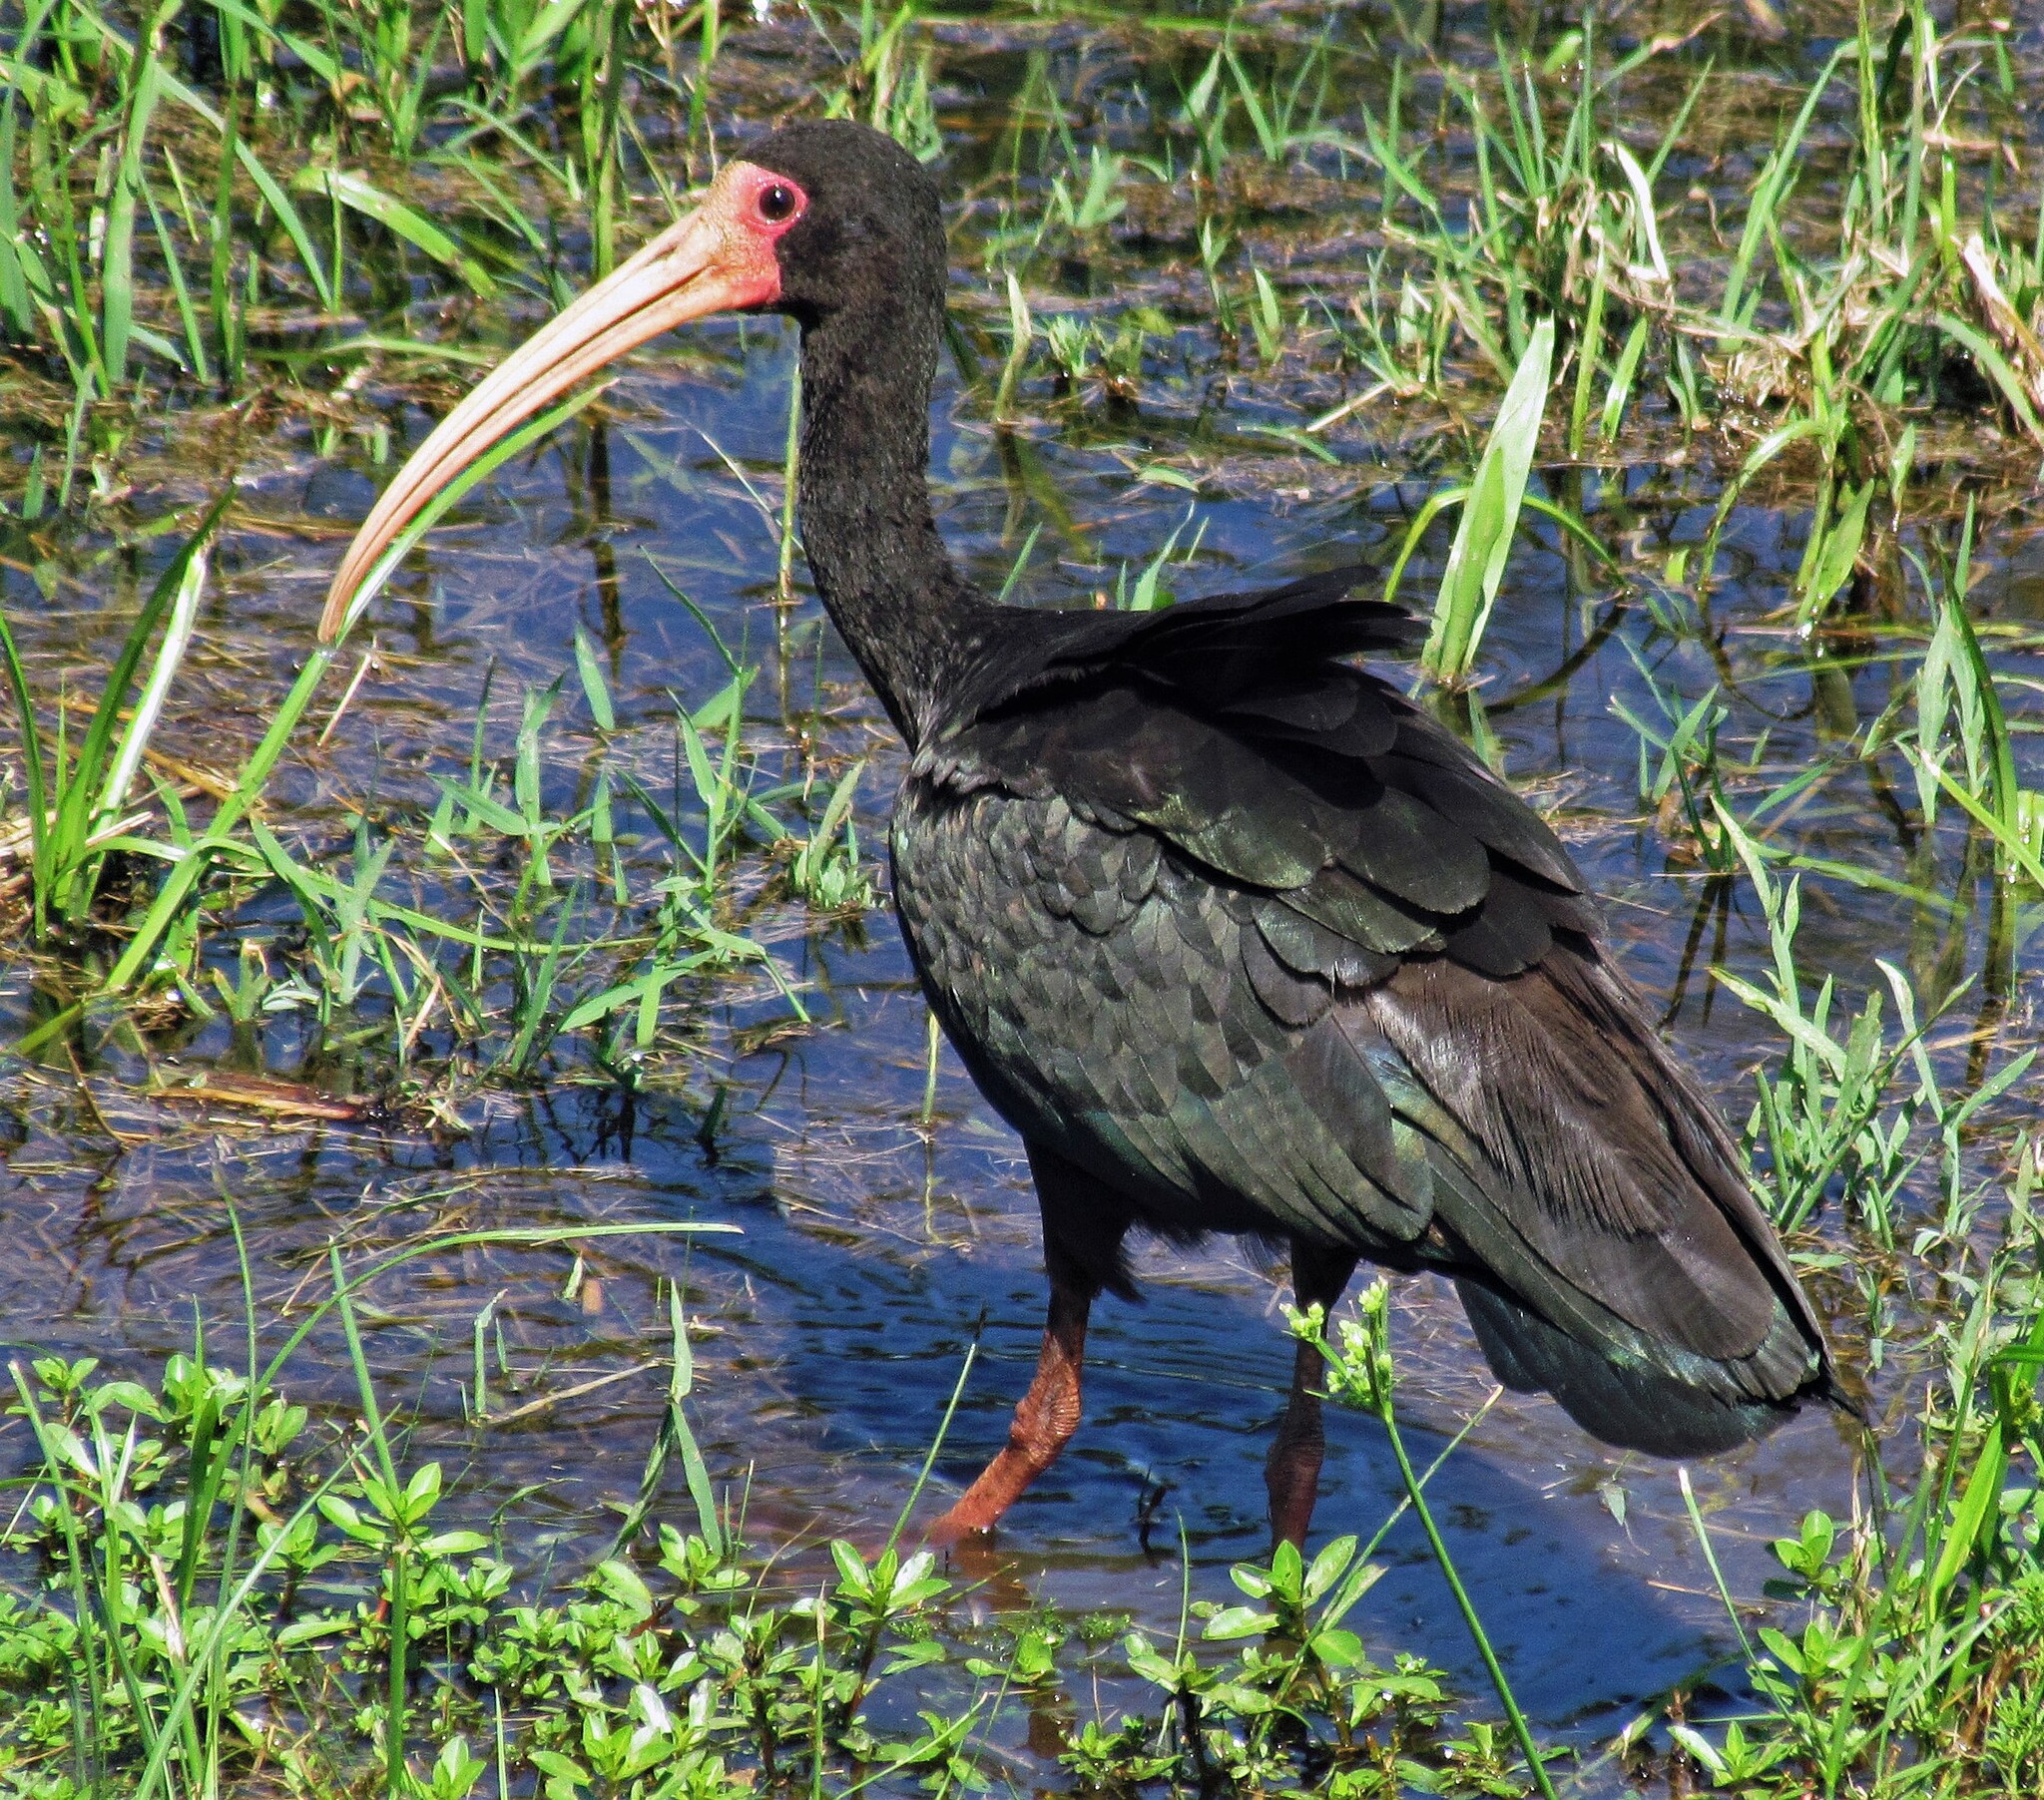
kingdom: Animalia
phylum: Chordata
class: Aves
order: Pelecaniformes
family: Threskiornithidae
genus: Phimosus
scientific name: Phimosus infuscatus
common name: Bare-faced ibis
